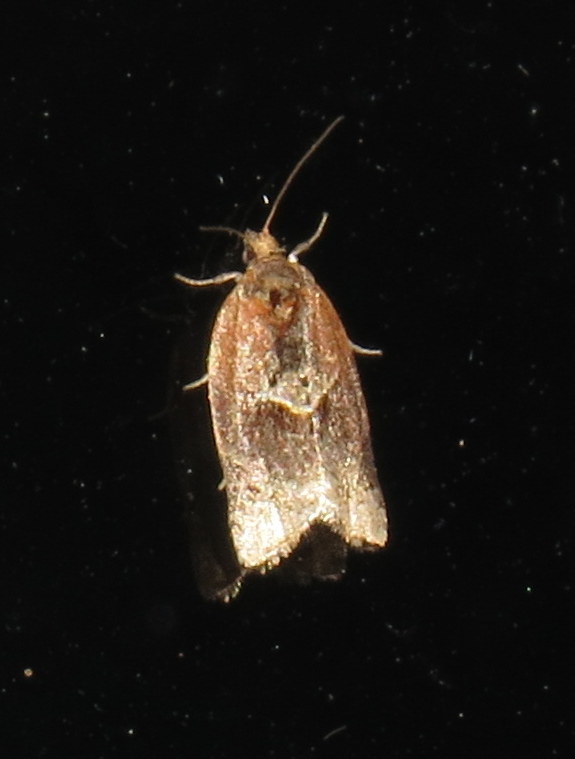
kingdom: Animalia
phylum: Arthropoda
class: Insecta
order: Lepidoptera
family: Tortricidae
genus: Argyrotaenia
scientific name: Argyrotaenia velutinana
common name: Red-banded leafroller moth
